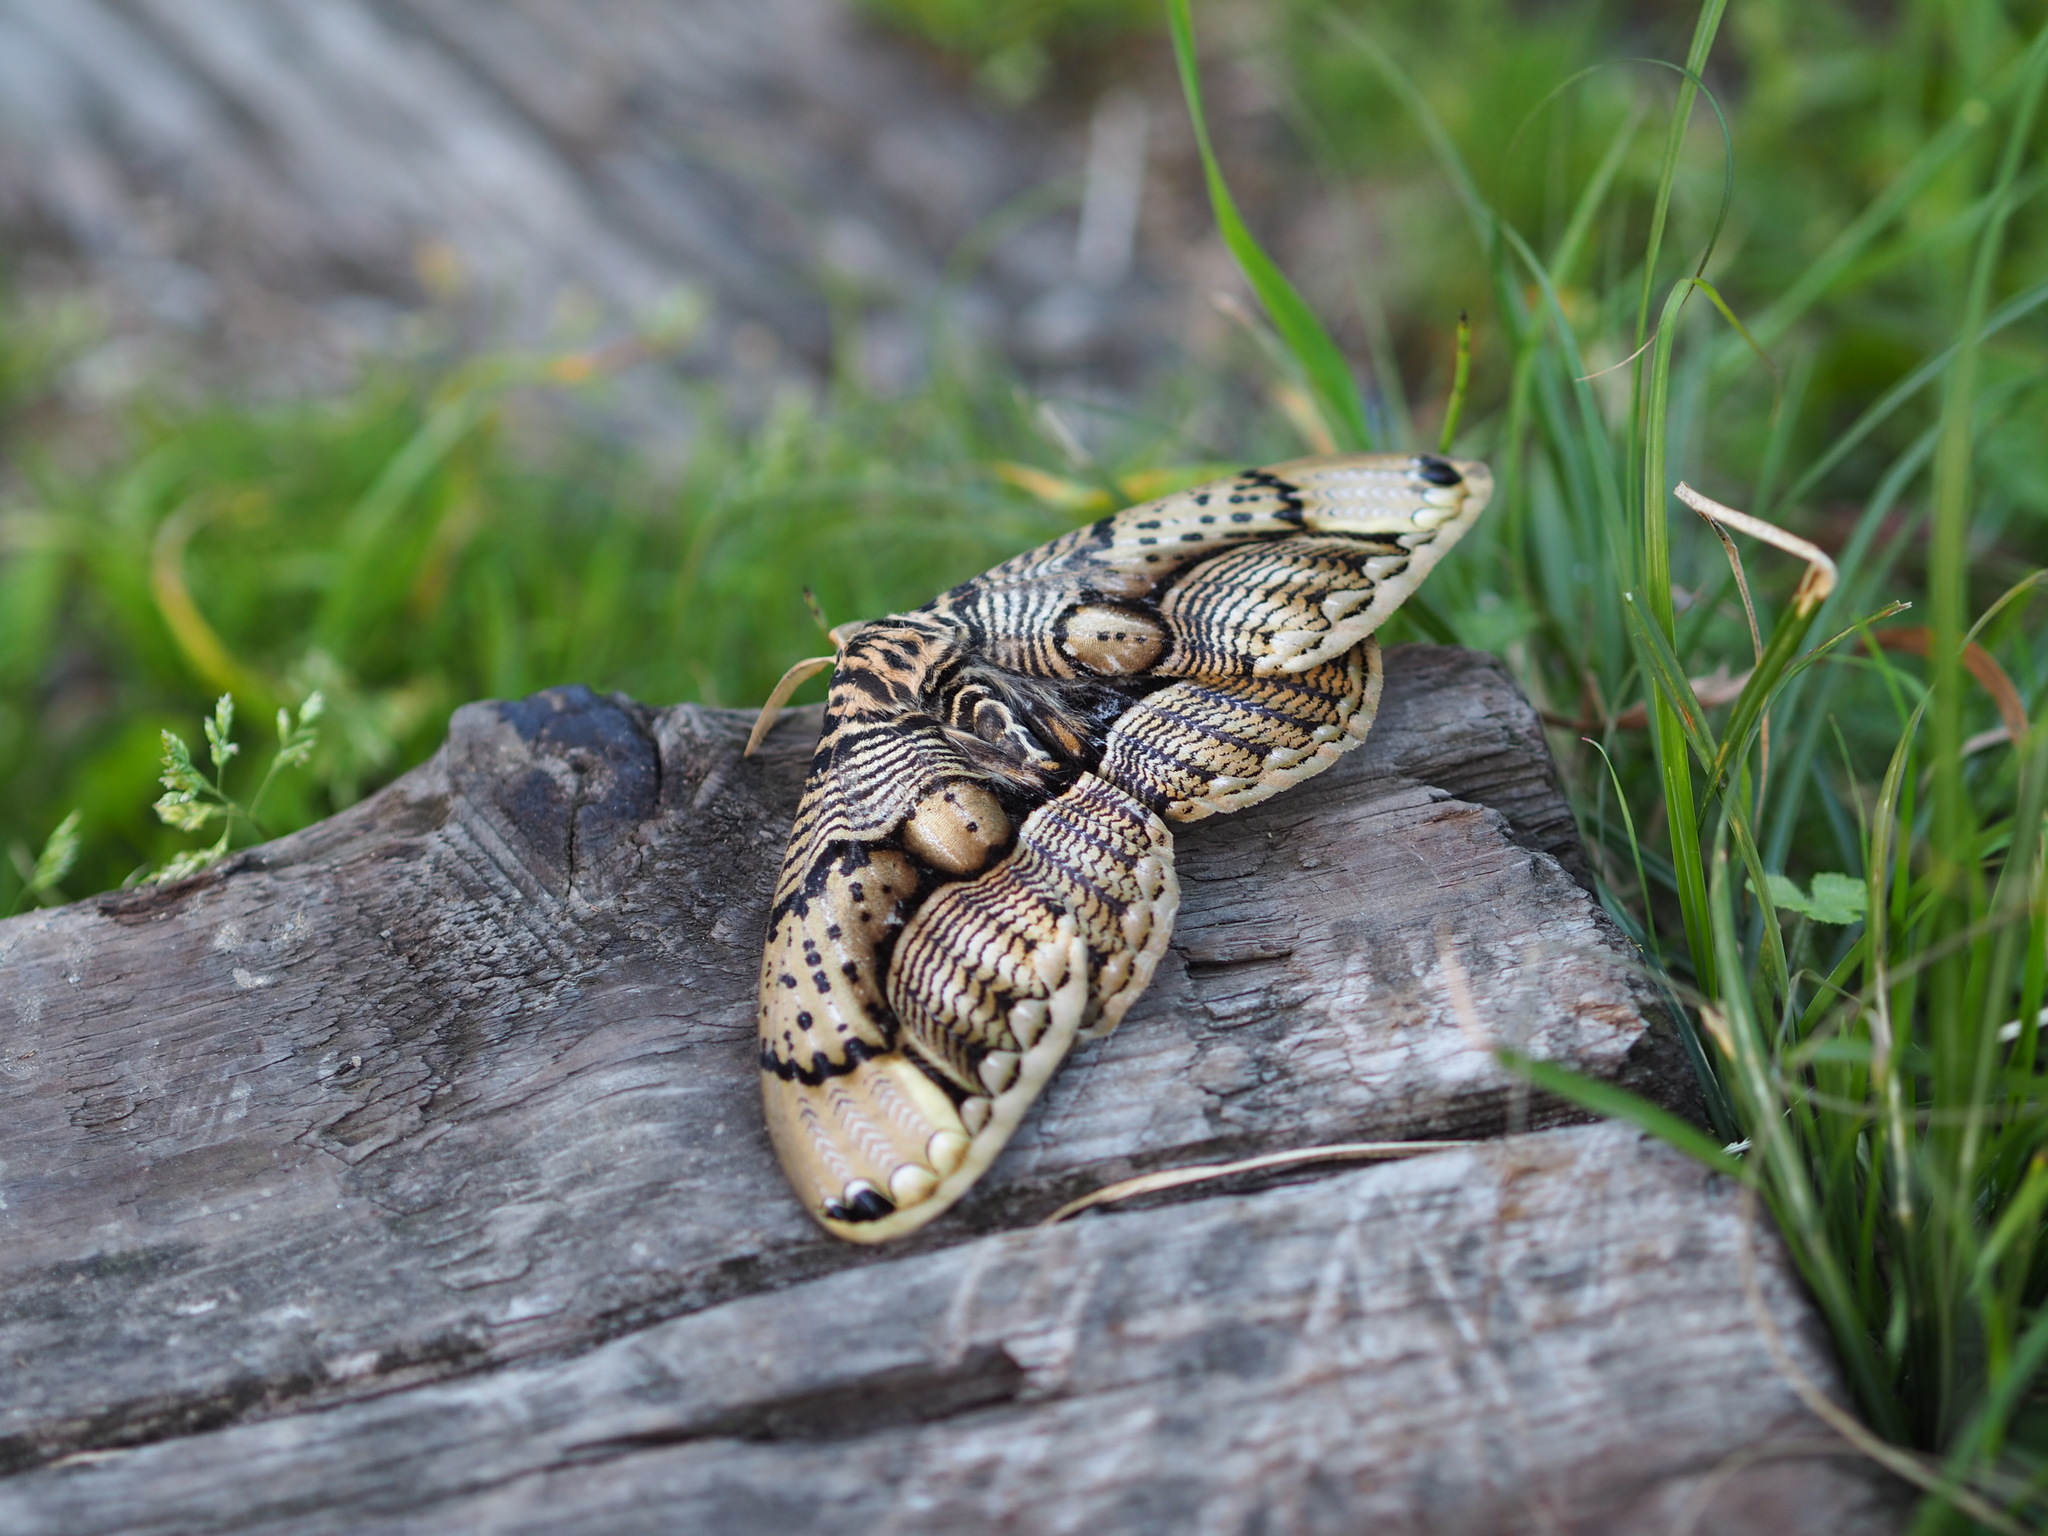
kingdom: Animalia
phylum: Arthropoda
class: Insecta
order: Lepidoptera
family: Brahmaeidae
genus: Brahmaea
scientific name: Brahmaea wallichii
